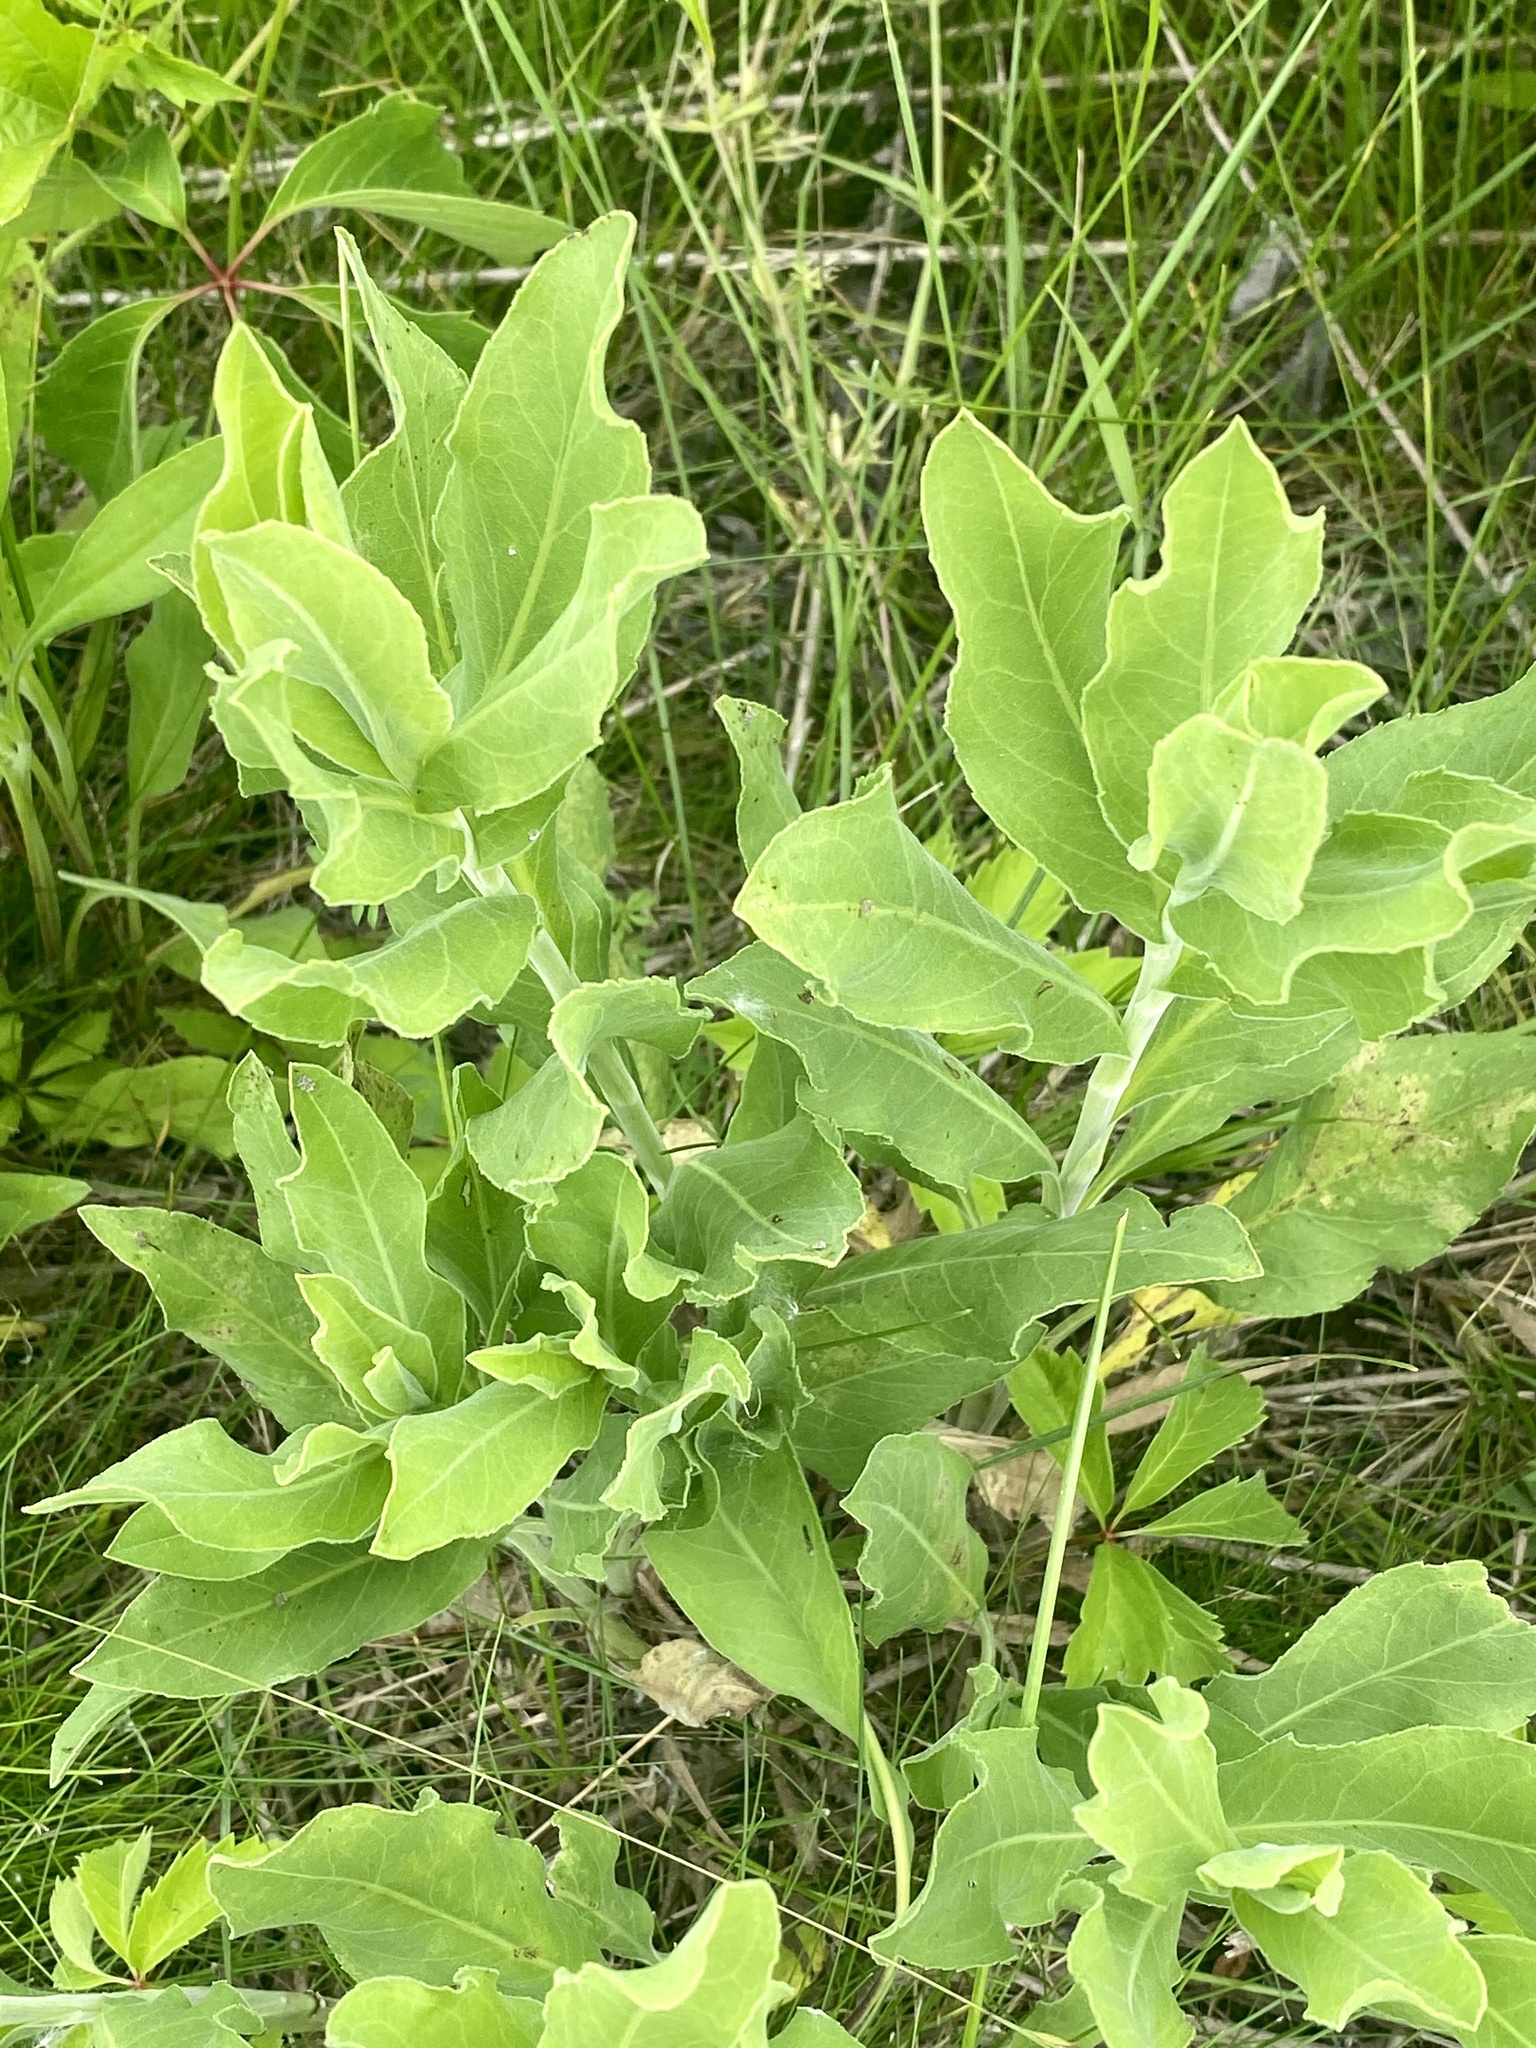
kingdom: Plantae
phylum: Tracheophyta
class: Magnoliopsida
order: Asterales
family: Asteraceae
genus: Solidago
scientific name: Solidago rigida
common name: Rigid goldenrod
